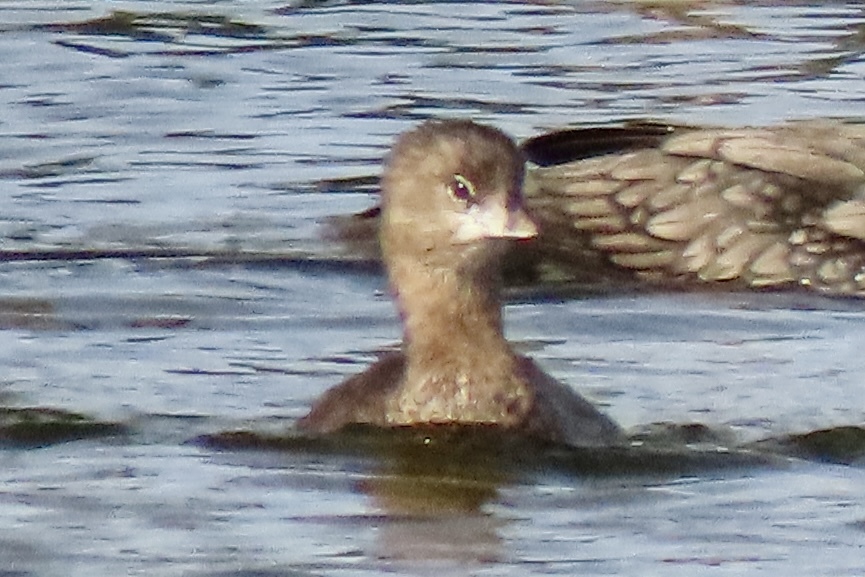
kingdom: Animalia
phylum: Chordata
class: Aves
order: Podicipediformes
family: Podicipedidae
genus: Podilymbus
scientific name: Podilymbus podiceps
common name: Pied-billed grebe
